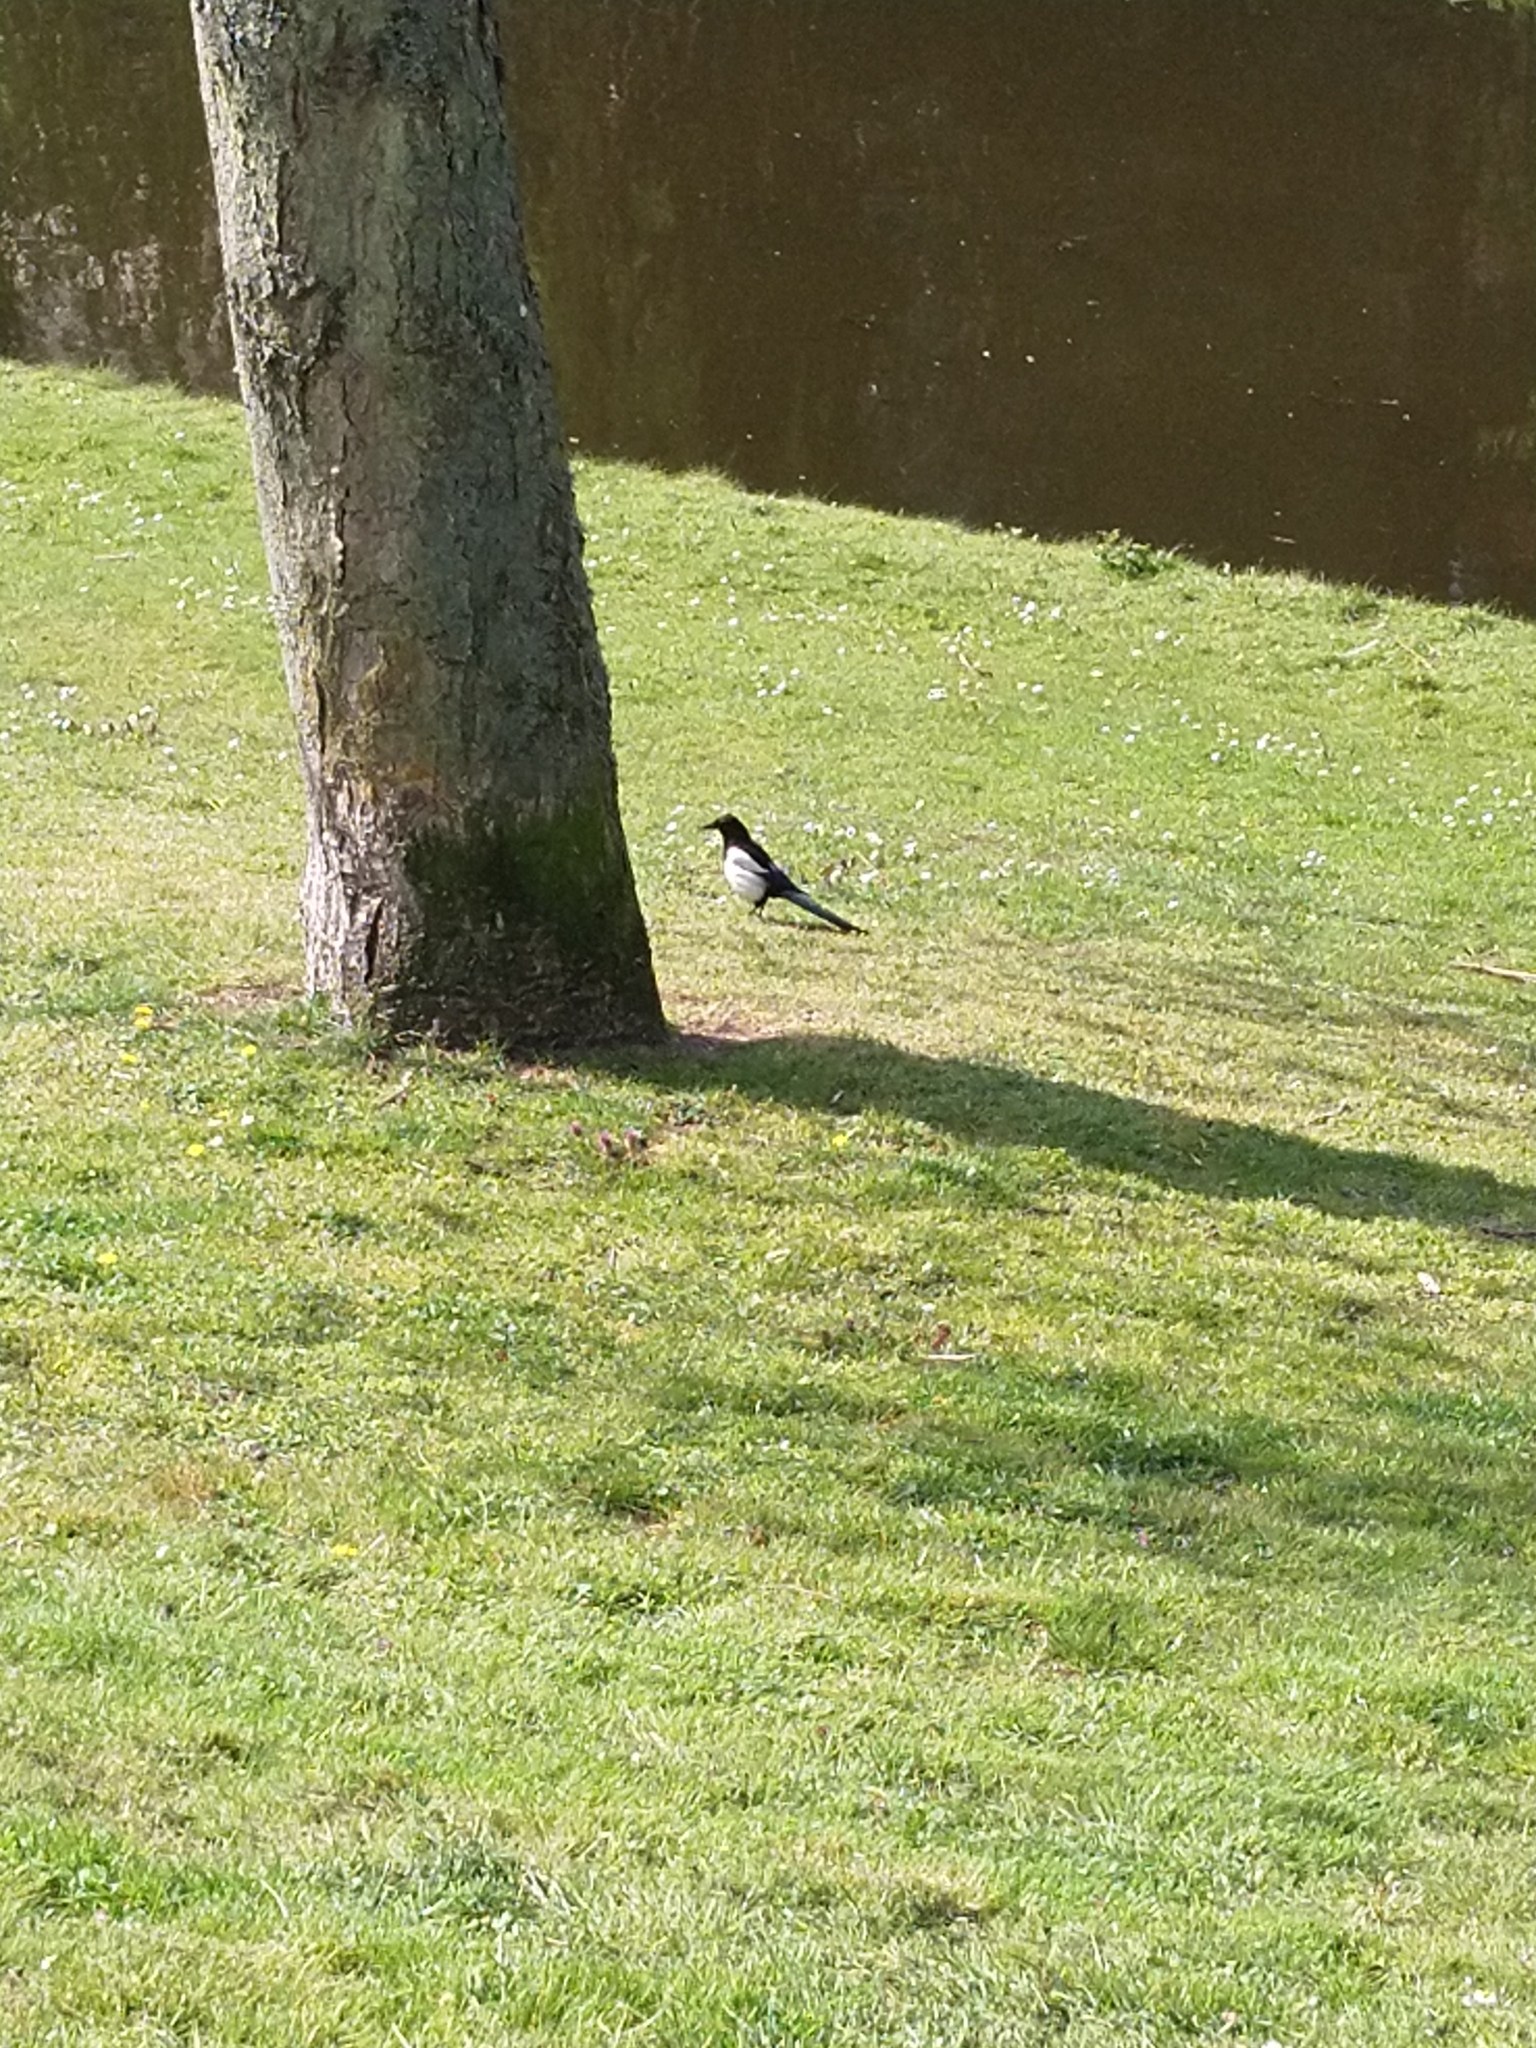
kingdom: Animalia
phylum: Chordata
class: Aves
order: Passeriformes
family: Corvidae
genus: Pica
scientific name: Pica pica
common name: Eurasian magpie
